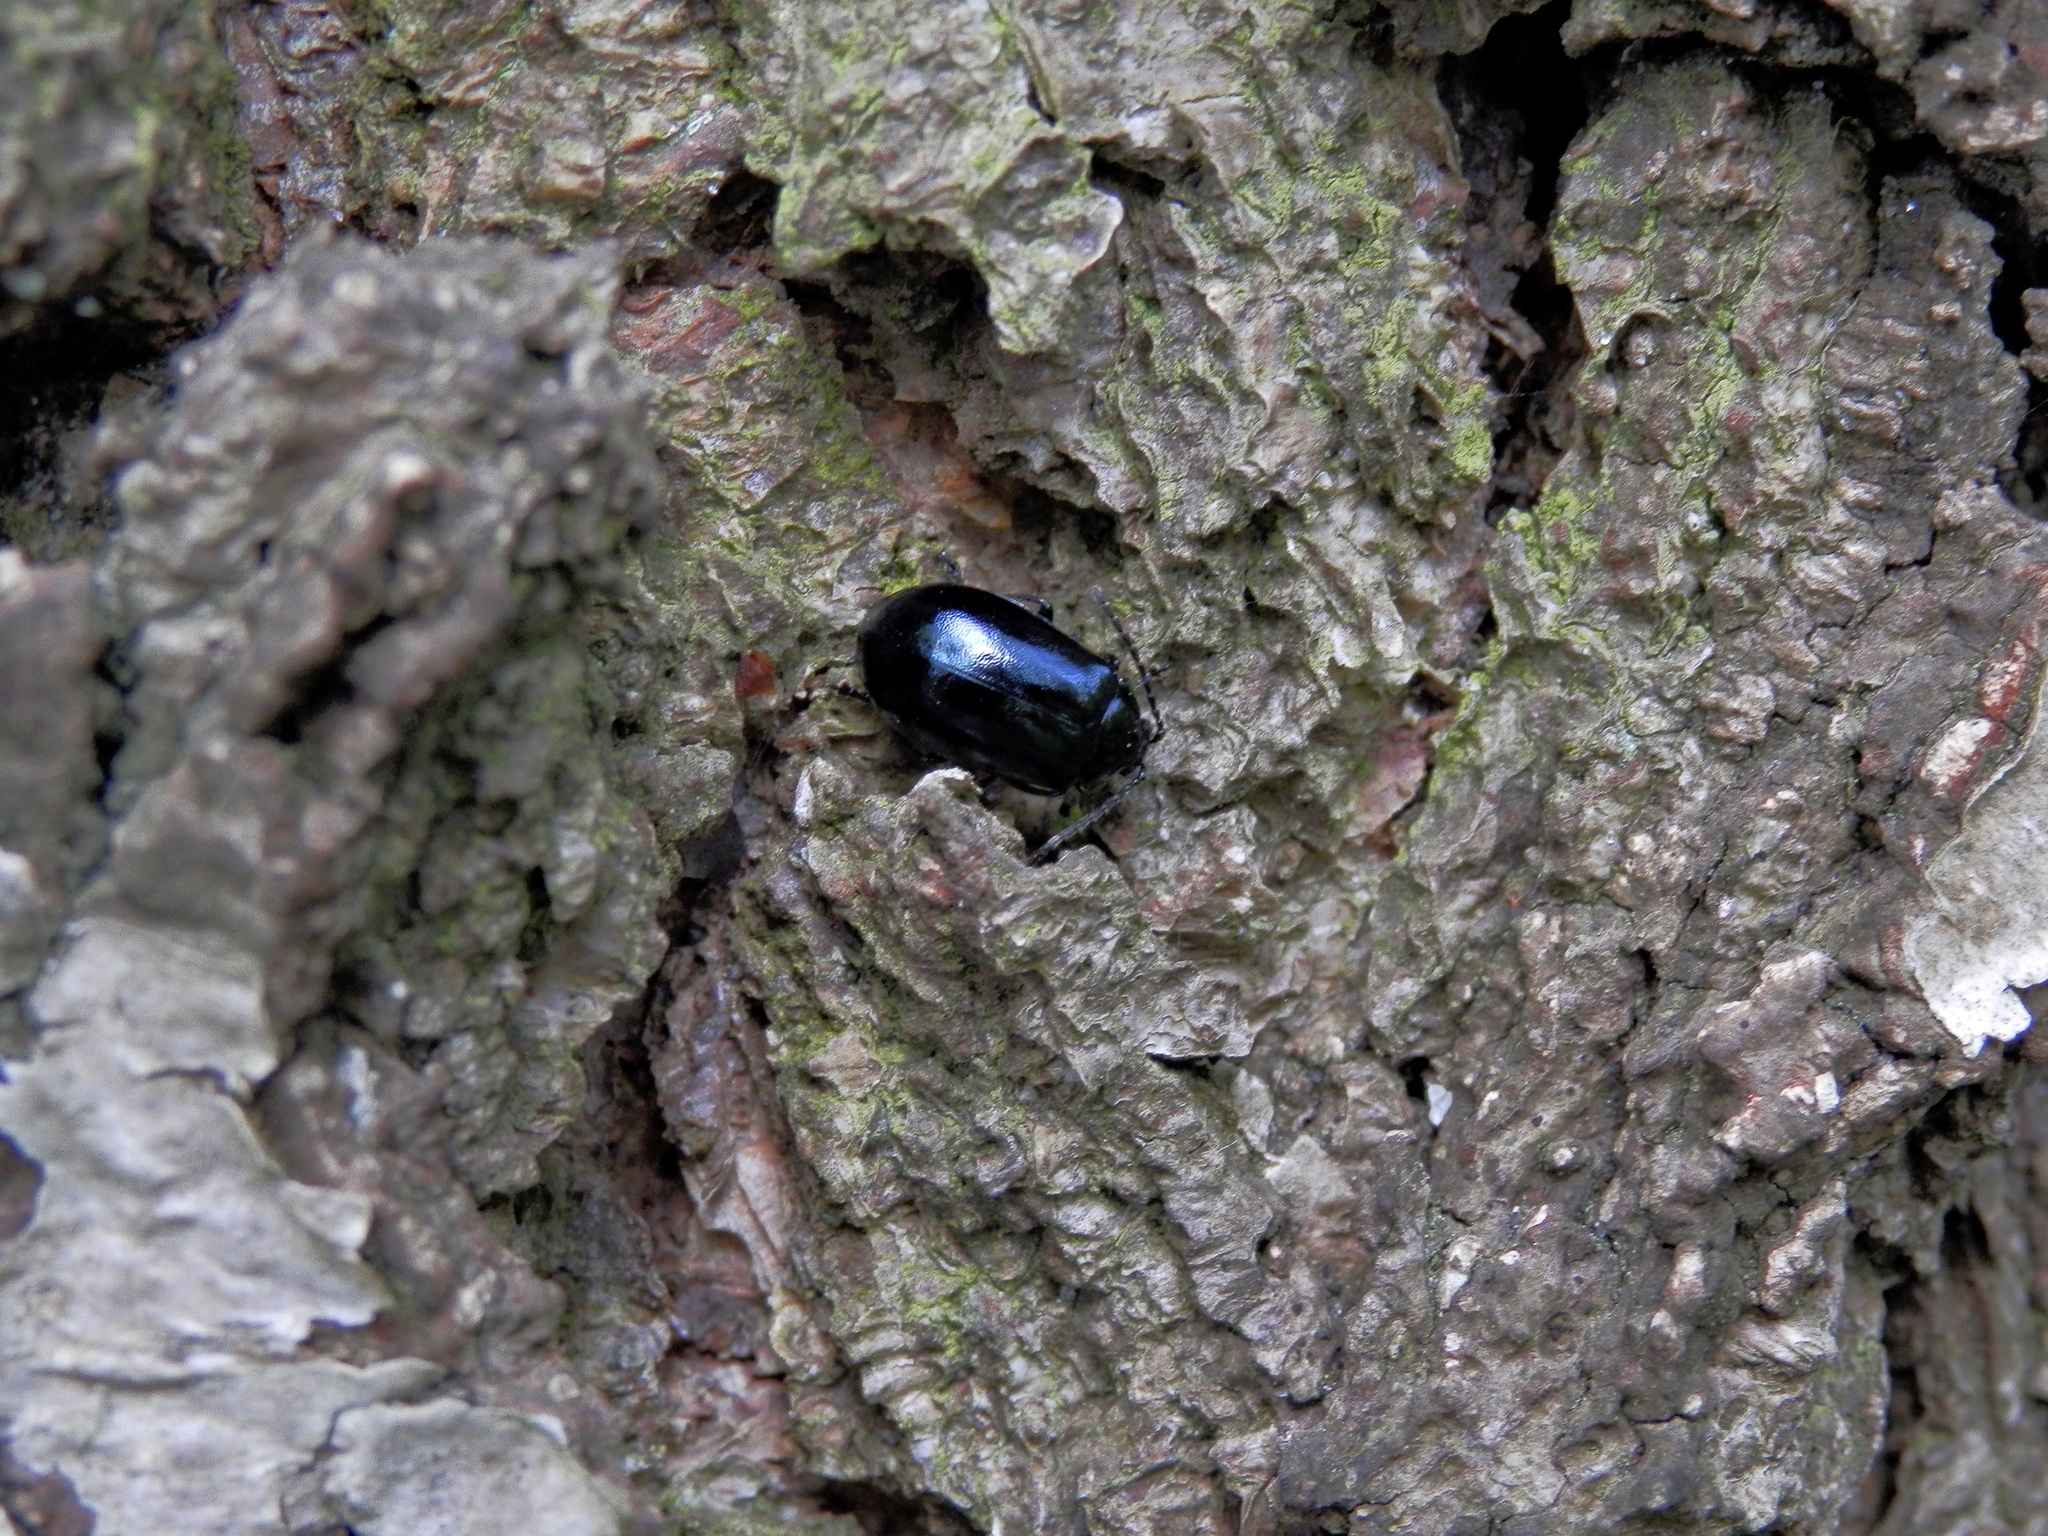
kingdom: Animalia
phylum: Arthropoda
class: Insecta
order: Coleoptera
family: Chrysomelidae
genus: Agelastica
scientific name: Agelastica alni
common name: Alder leaf beetle
